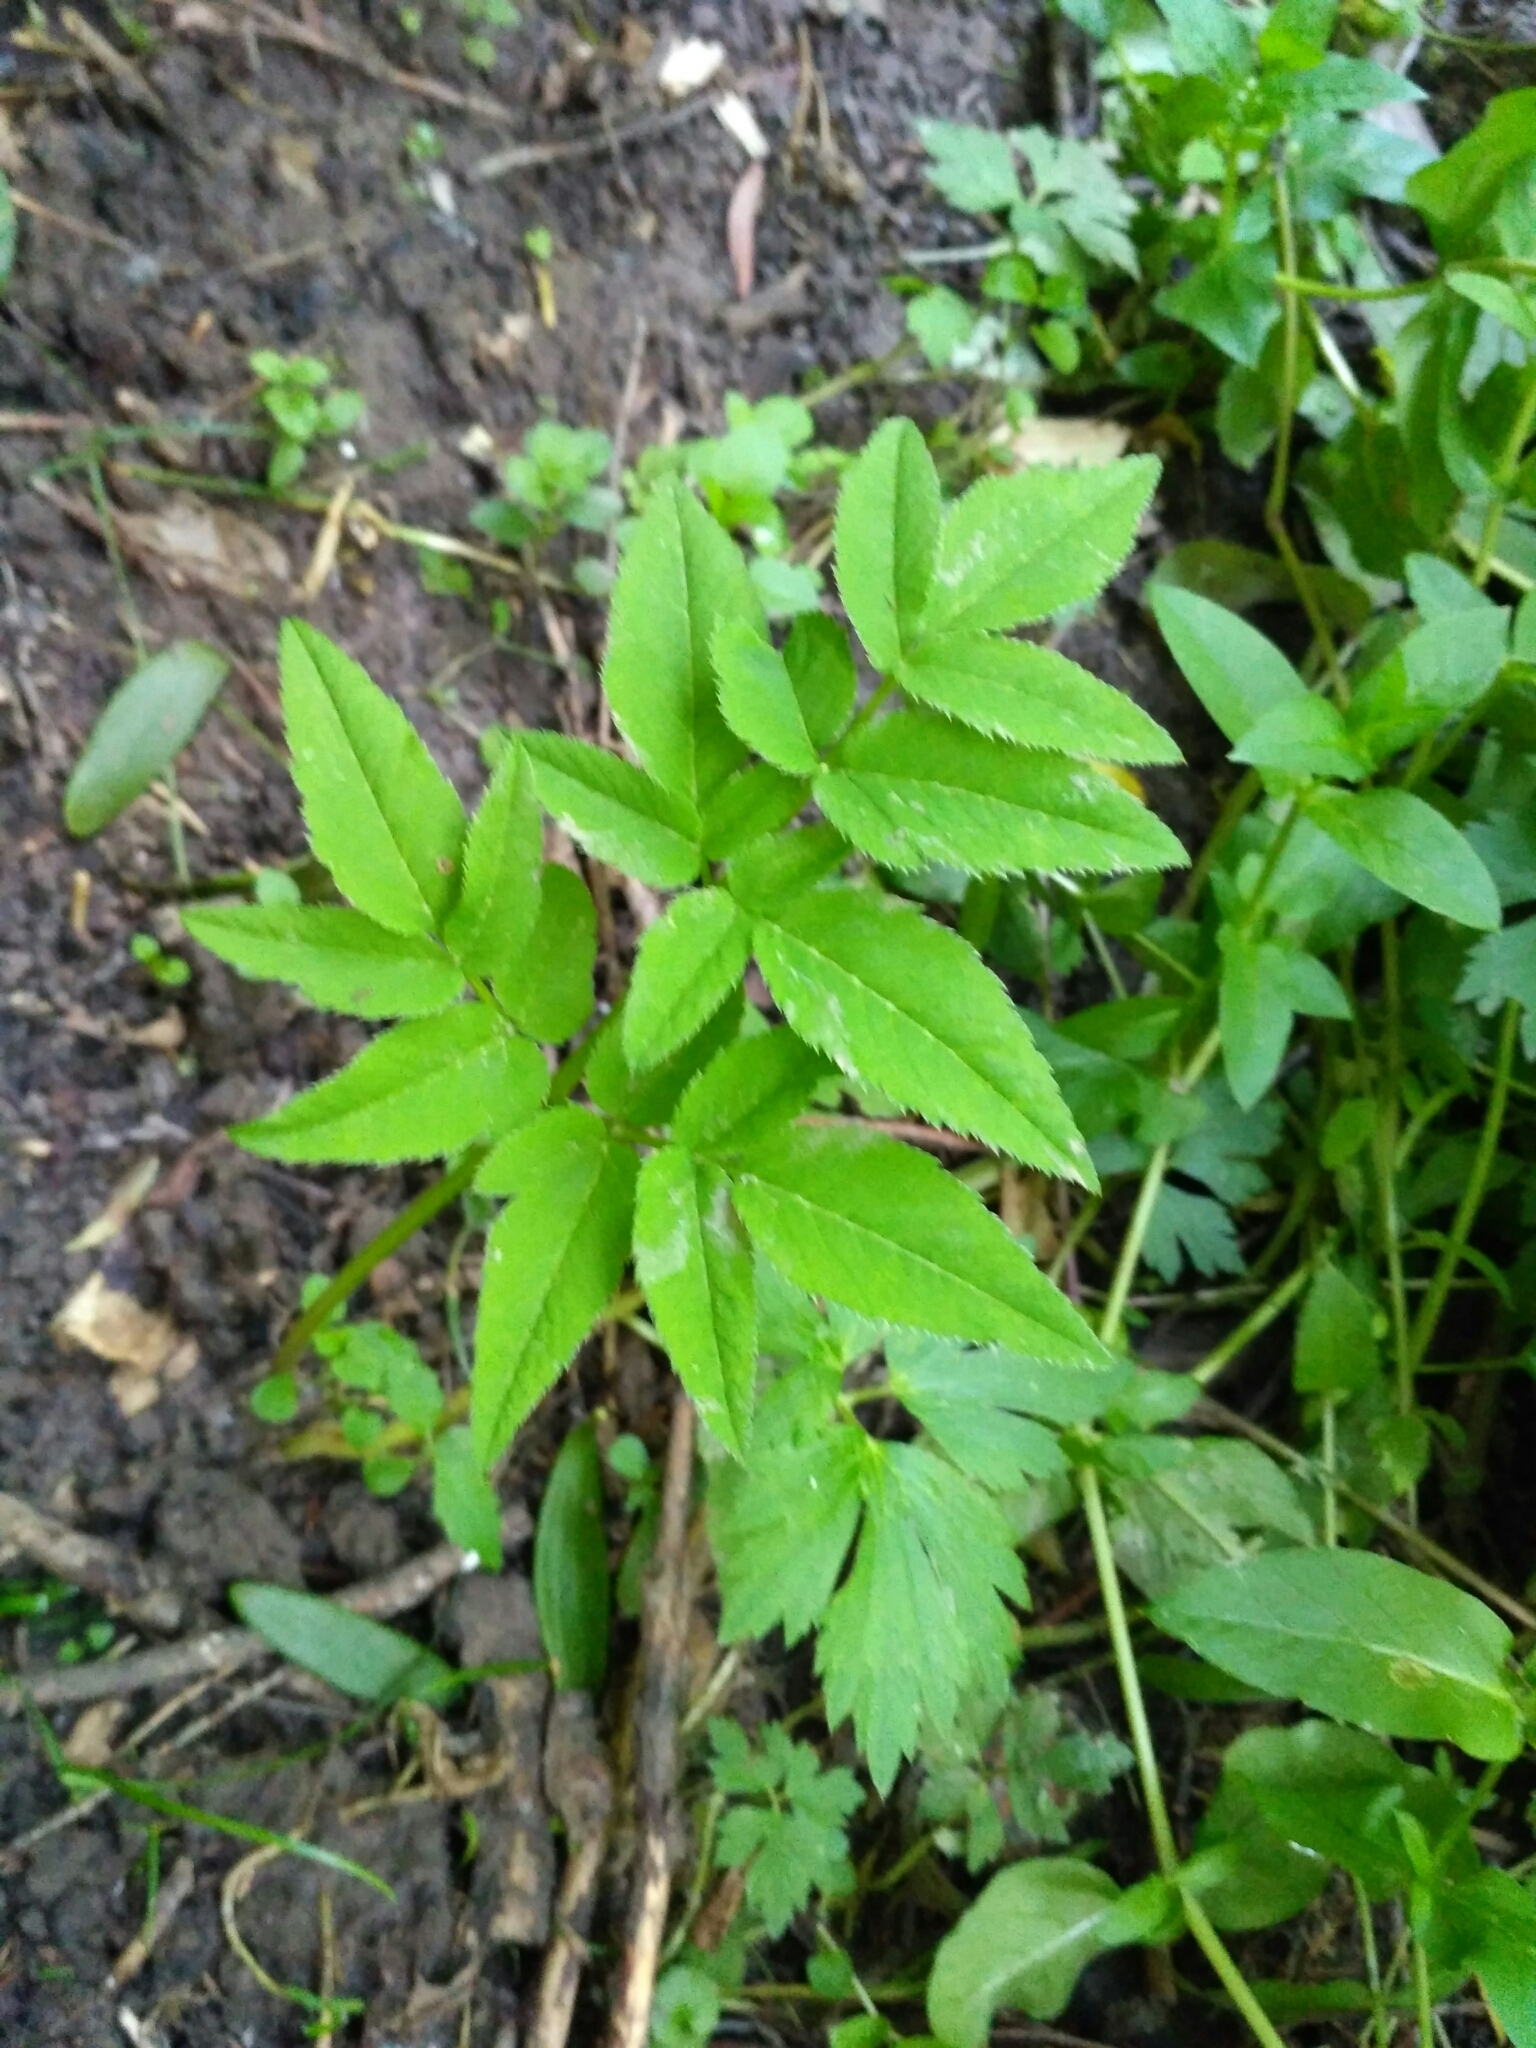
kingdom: Plantae
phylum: Tracheophyta
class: Magnoliopsida
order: Apiales
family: Apiaceae
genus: Angelica
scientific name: Angelica sylvestris
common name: Wild angelica
